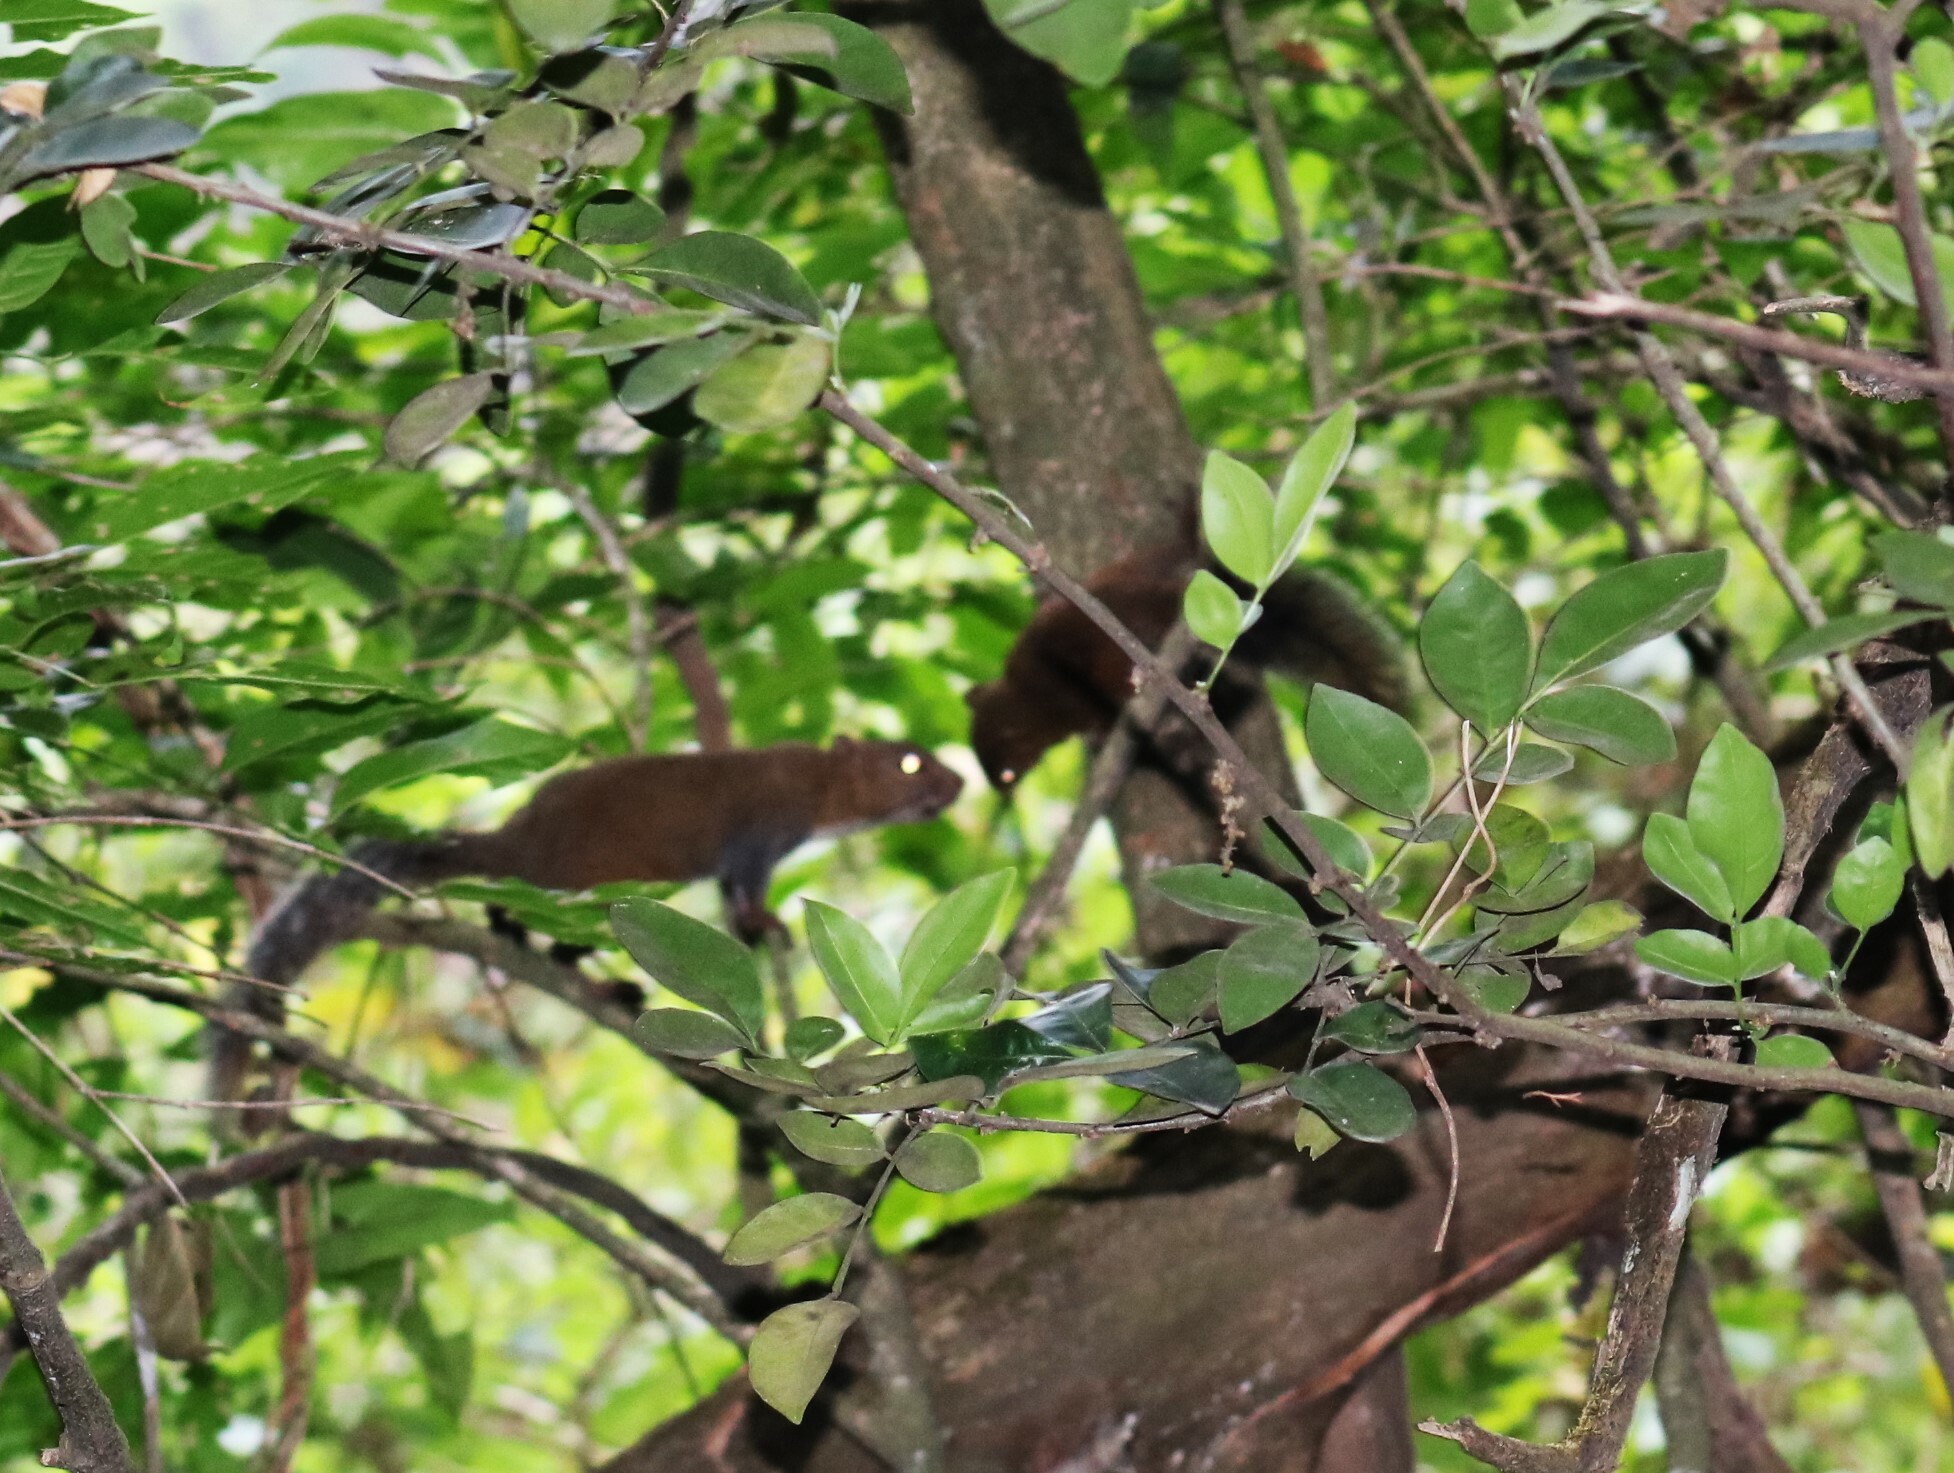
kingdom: Animalia
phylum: Chordata
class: Mammalia
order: Rodentia
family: Sciuridae
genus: Sciurus
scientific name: Sciurus deppei
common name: Deppe's squirrel
